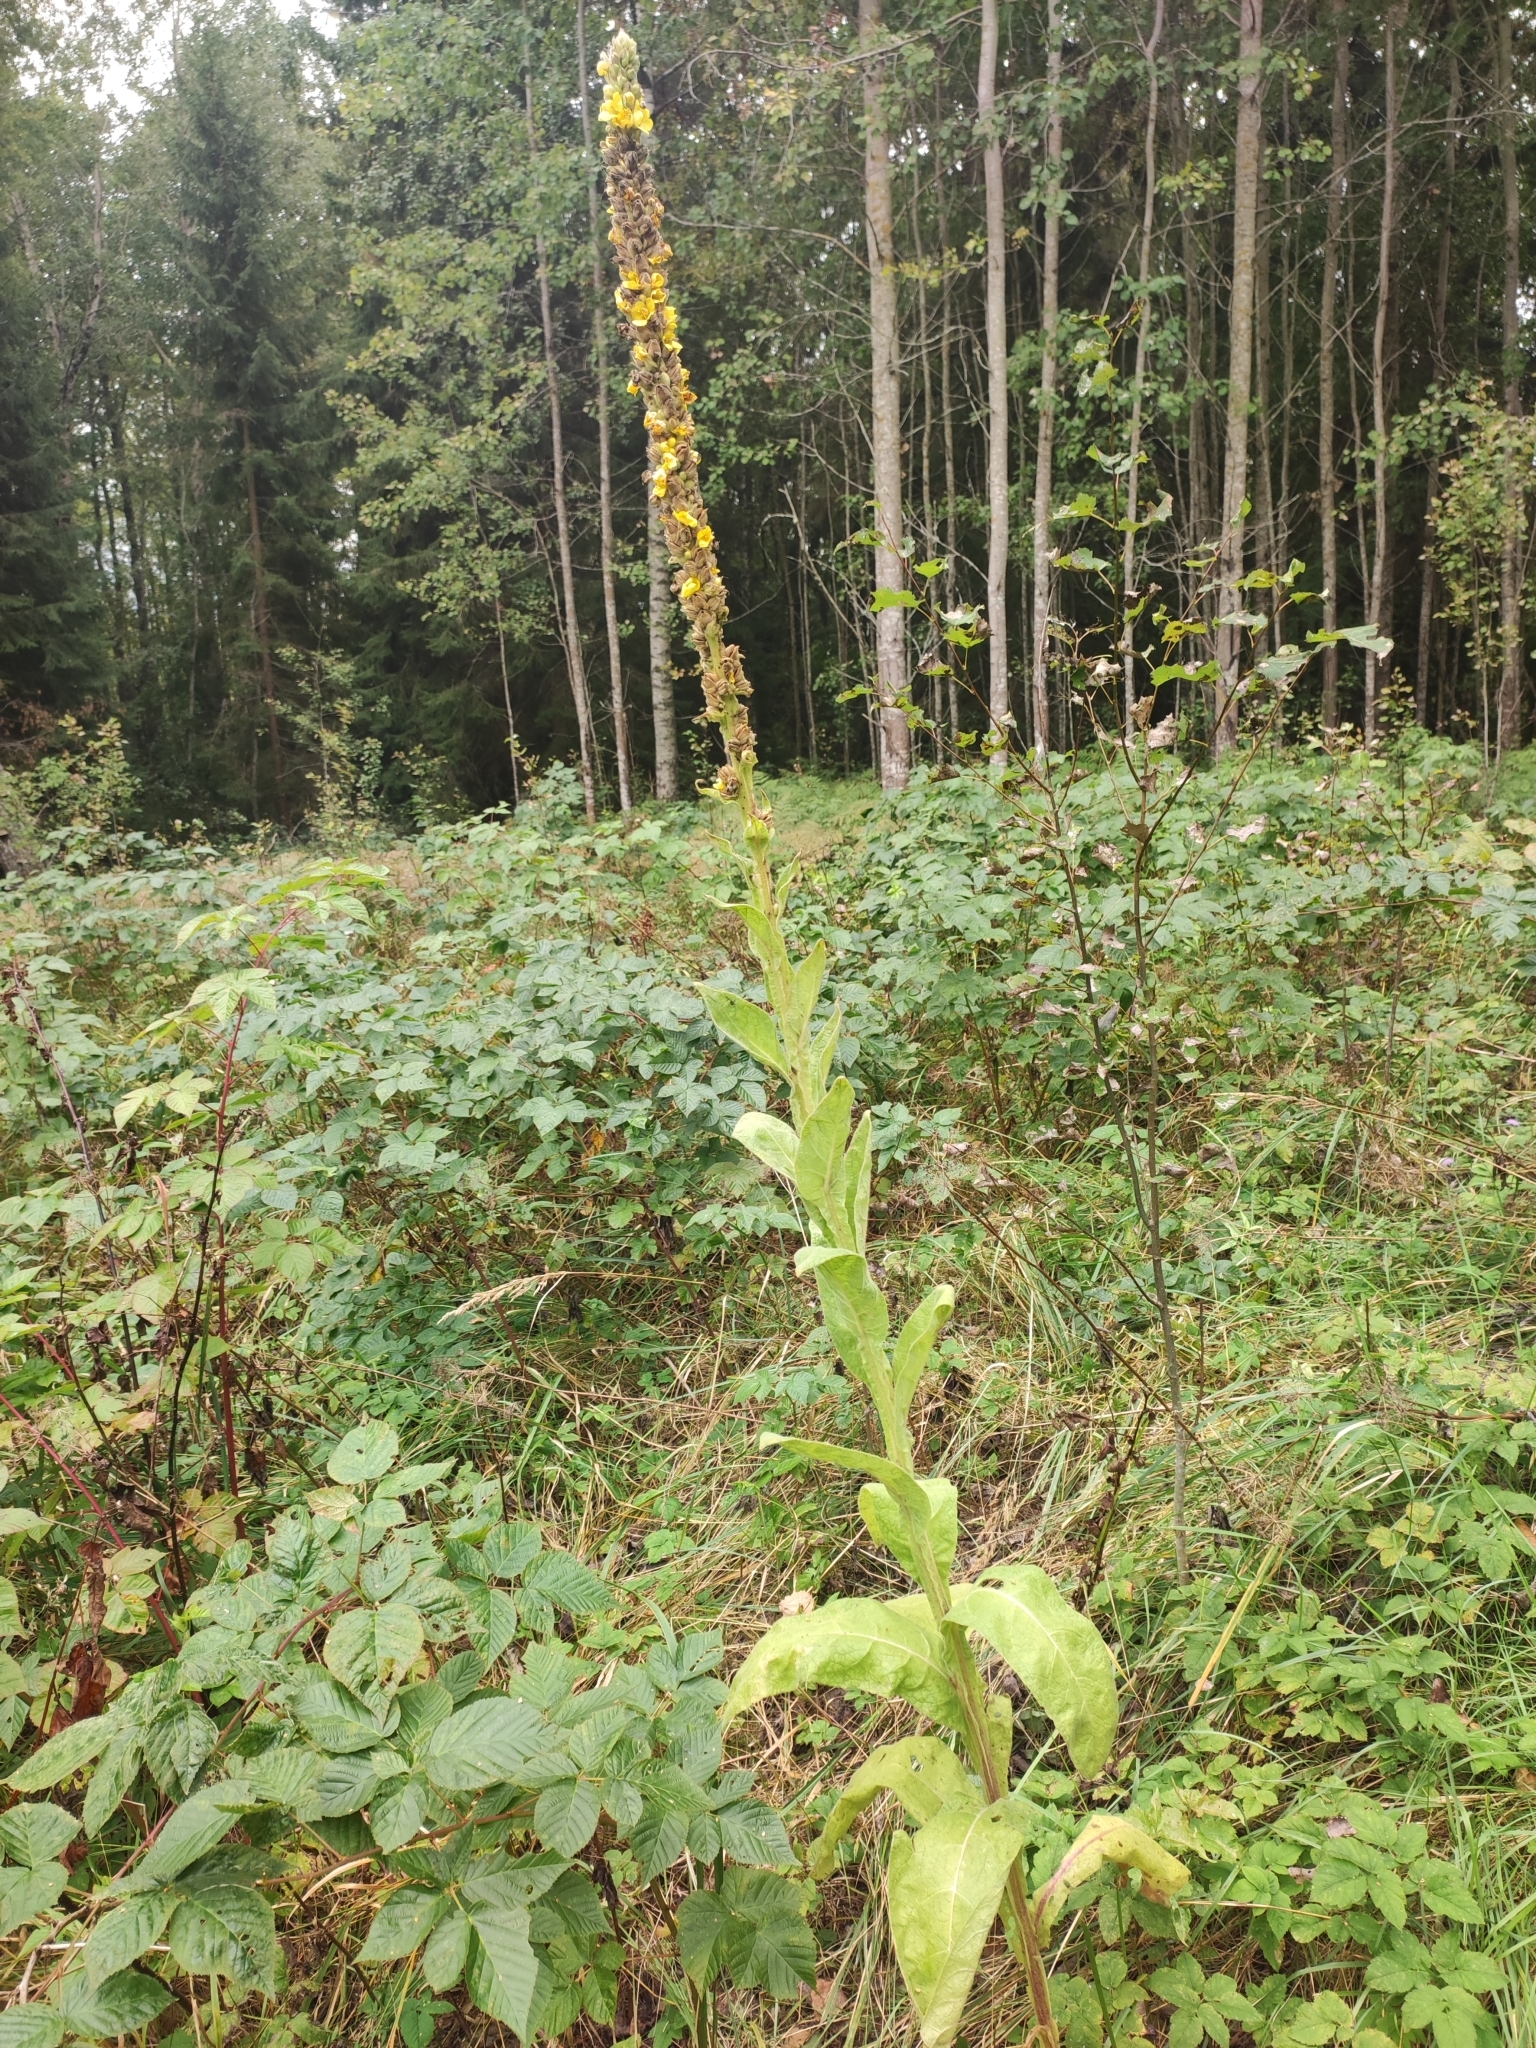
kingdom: Plantae
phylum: Tracheophyta
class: Magnoliopsida
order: Lamiales
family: Scrophulariaceae
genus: Verbascum
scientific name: Verbascum thapsus
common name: Common mullein
